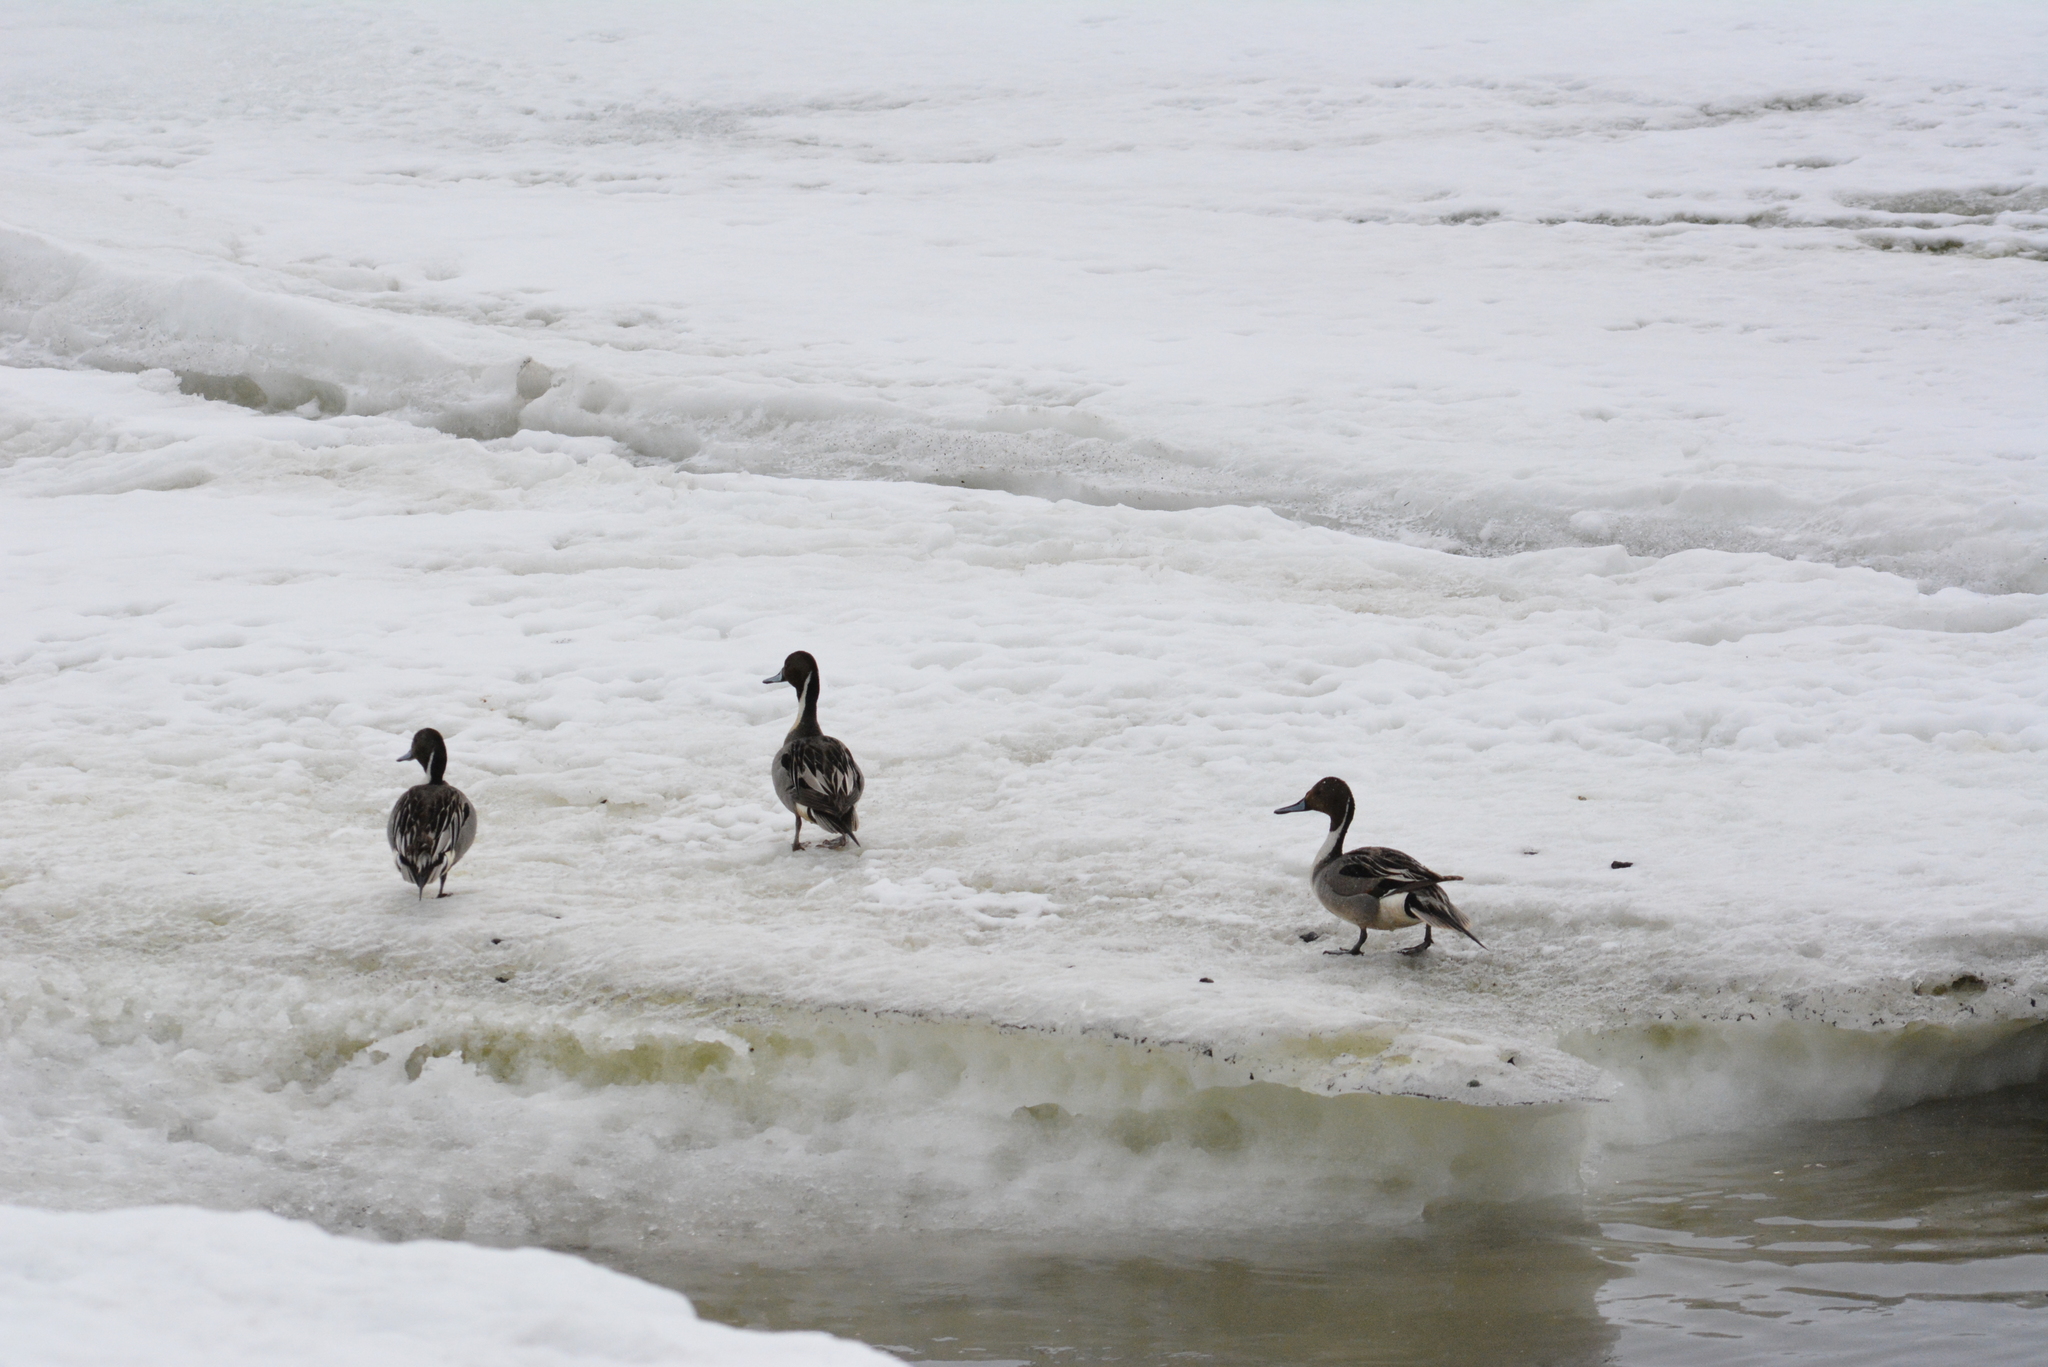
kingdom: Animalia
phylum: Chordata
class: Aves
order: Anseriformes
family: Anatidae
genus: Anas
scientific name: Anas acuta
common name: Northern pintail
